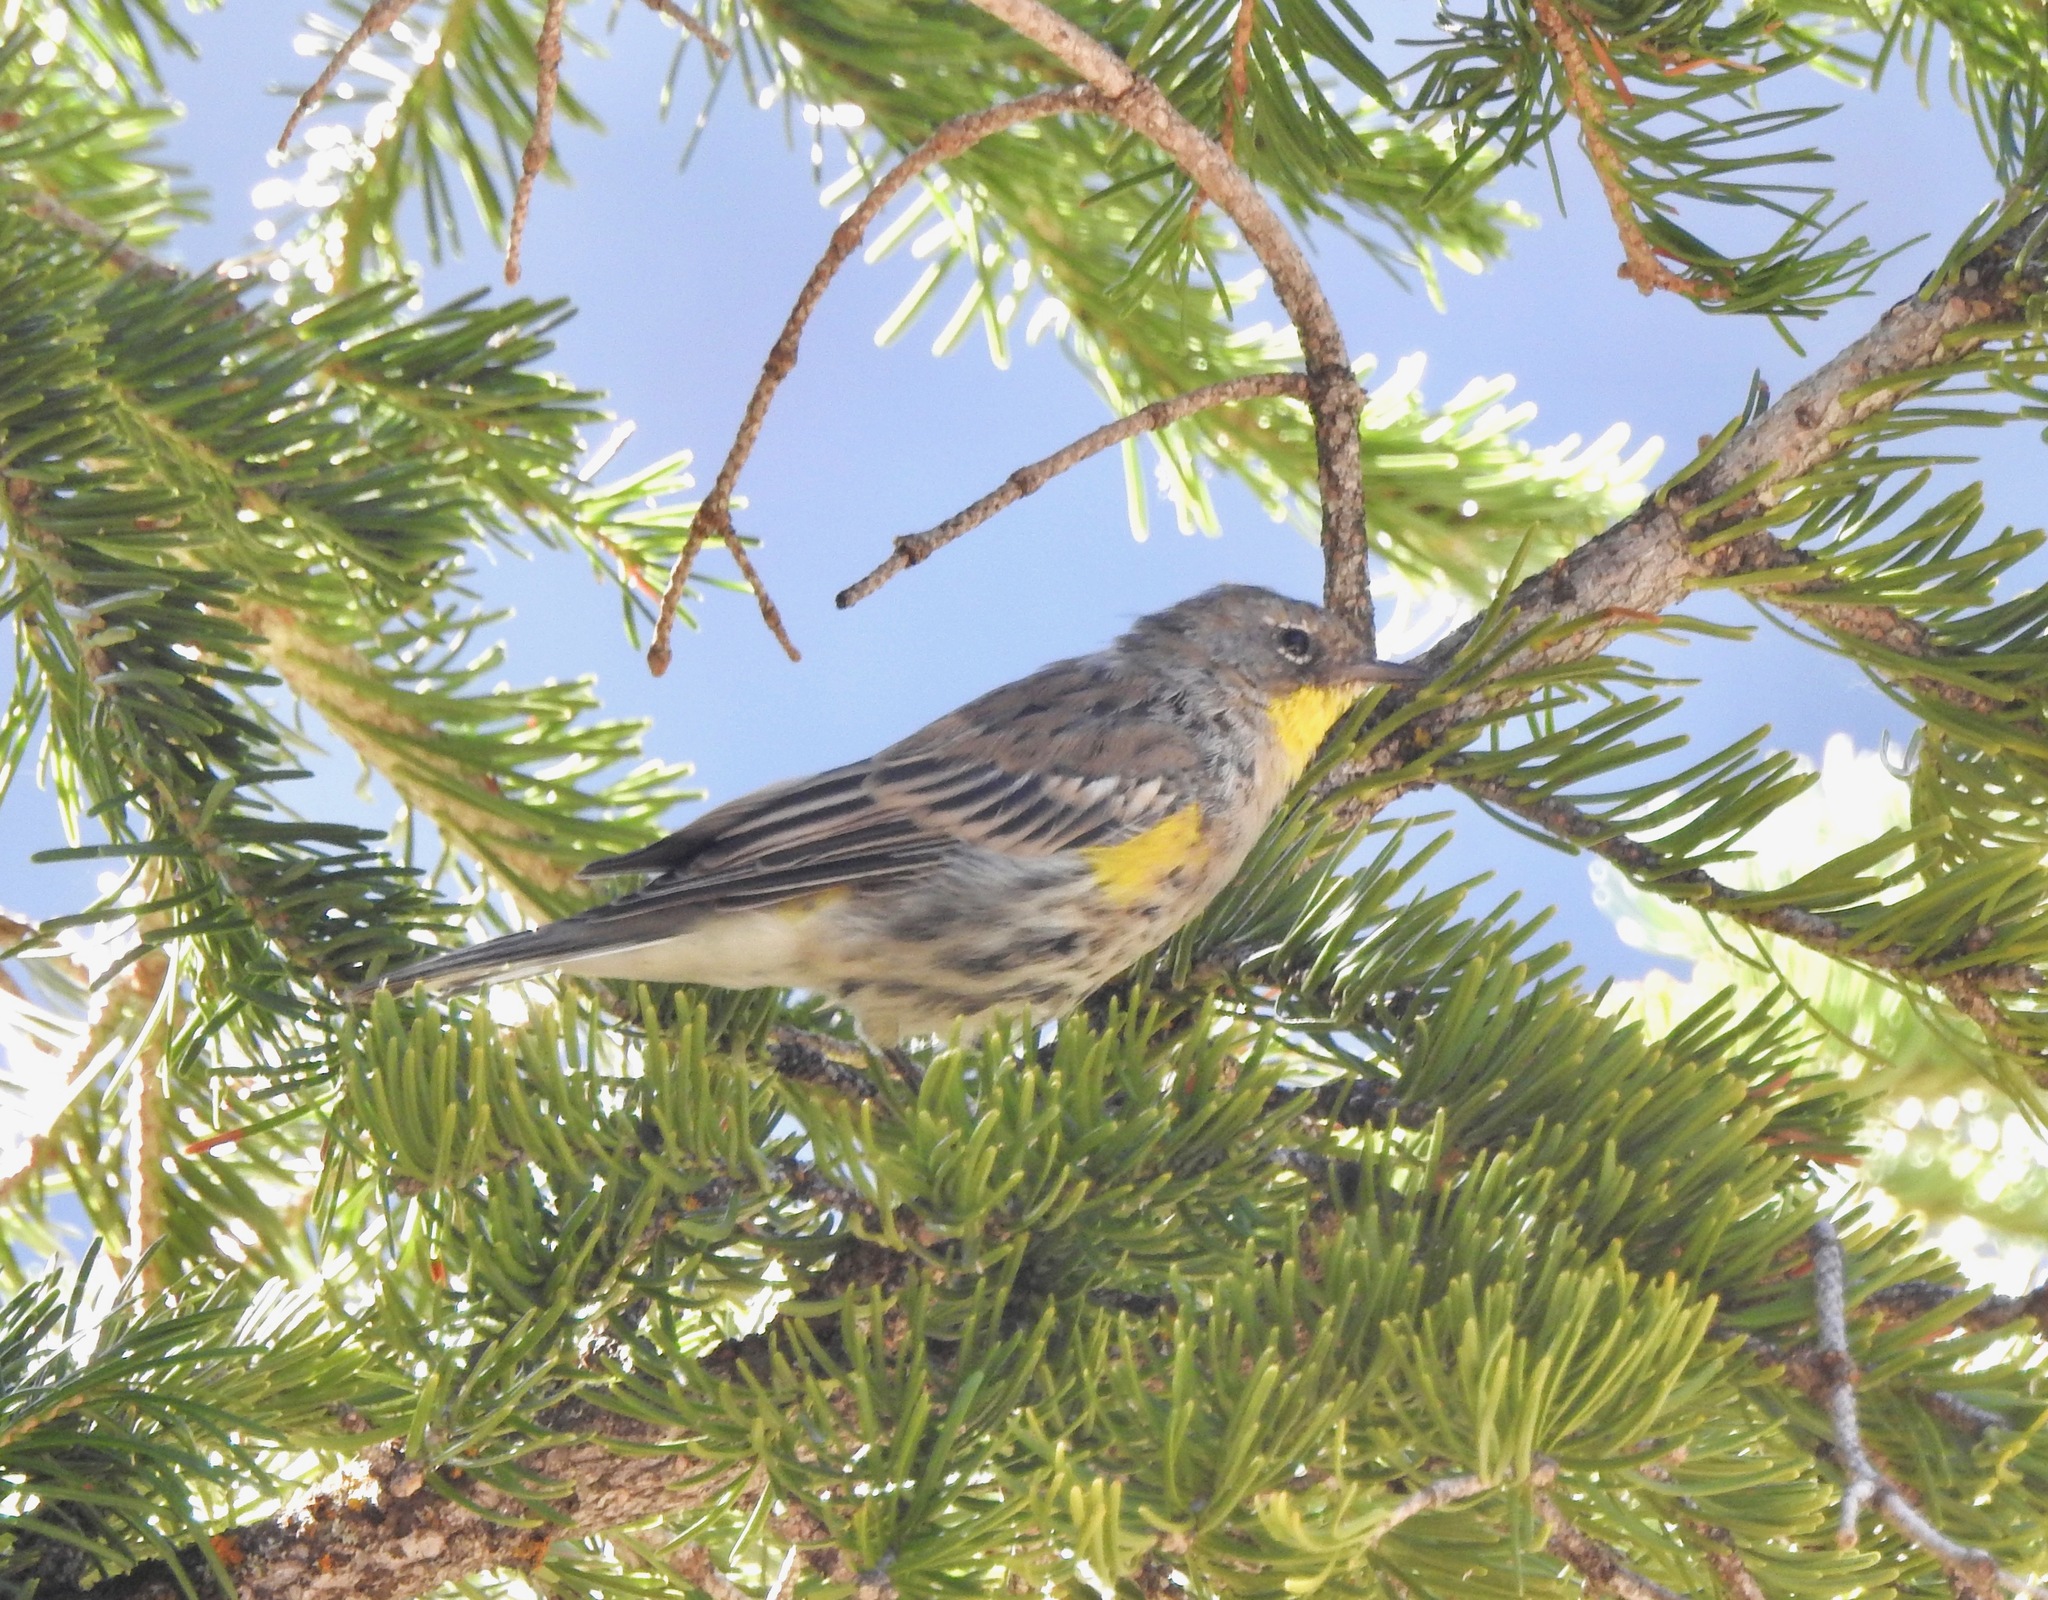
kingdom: Animalia
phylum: Chordata
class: Aves
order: Passeriformes
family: Parulidae
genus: Setophaga
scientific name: Setophaga coronata
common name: Myrtle warbler
